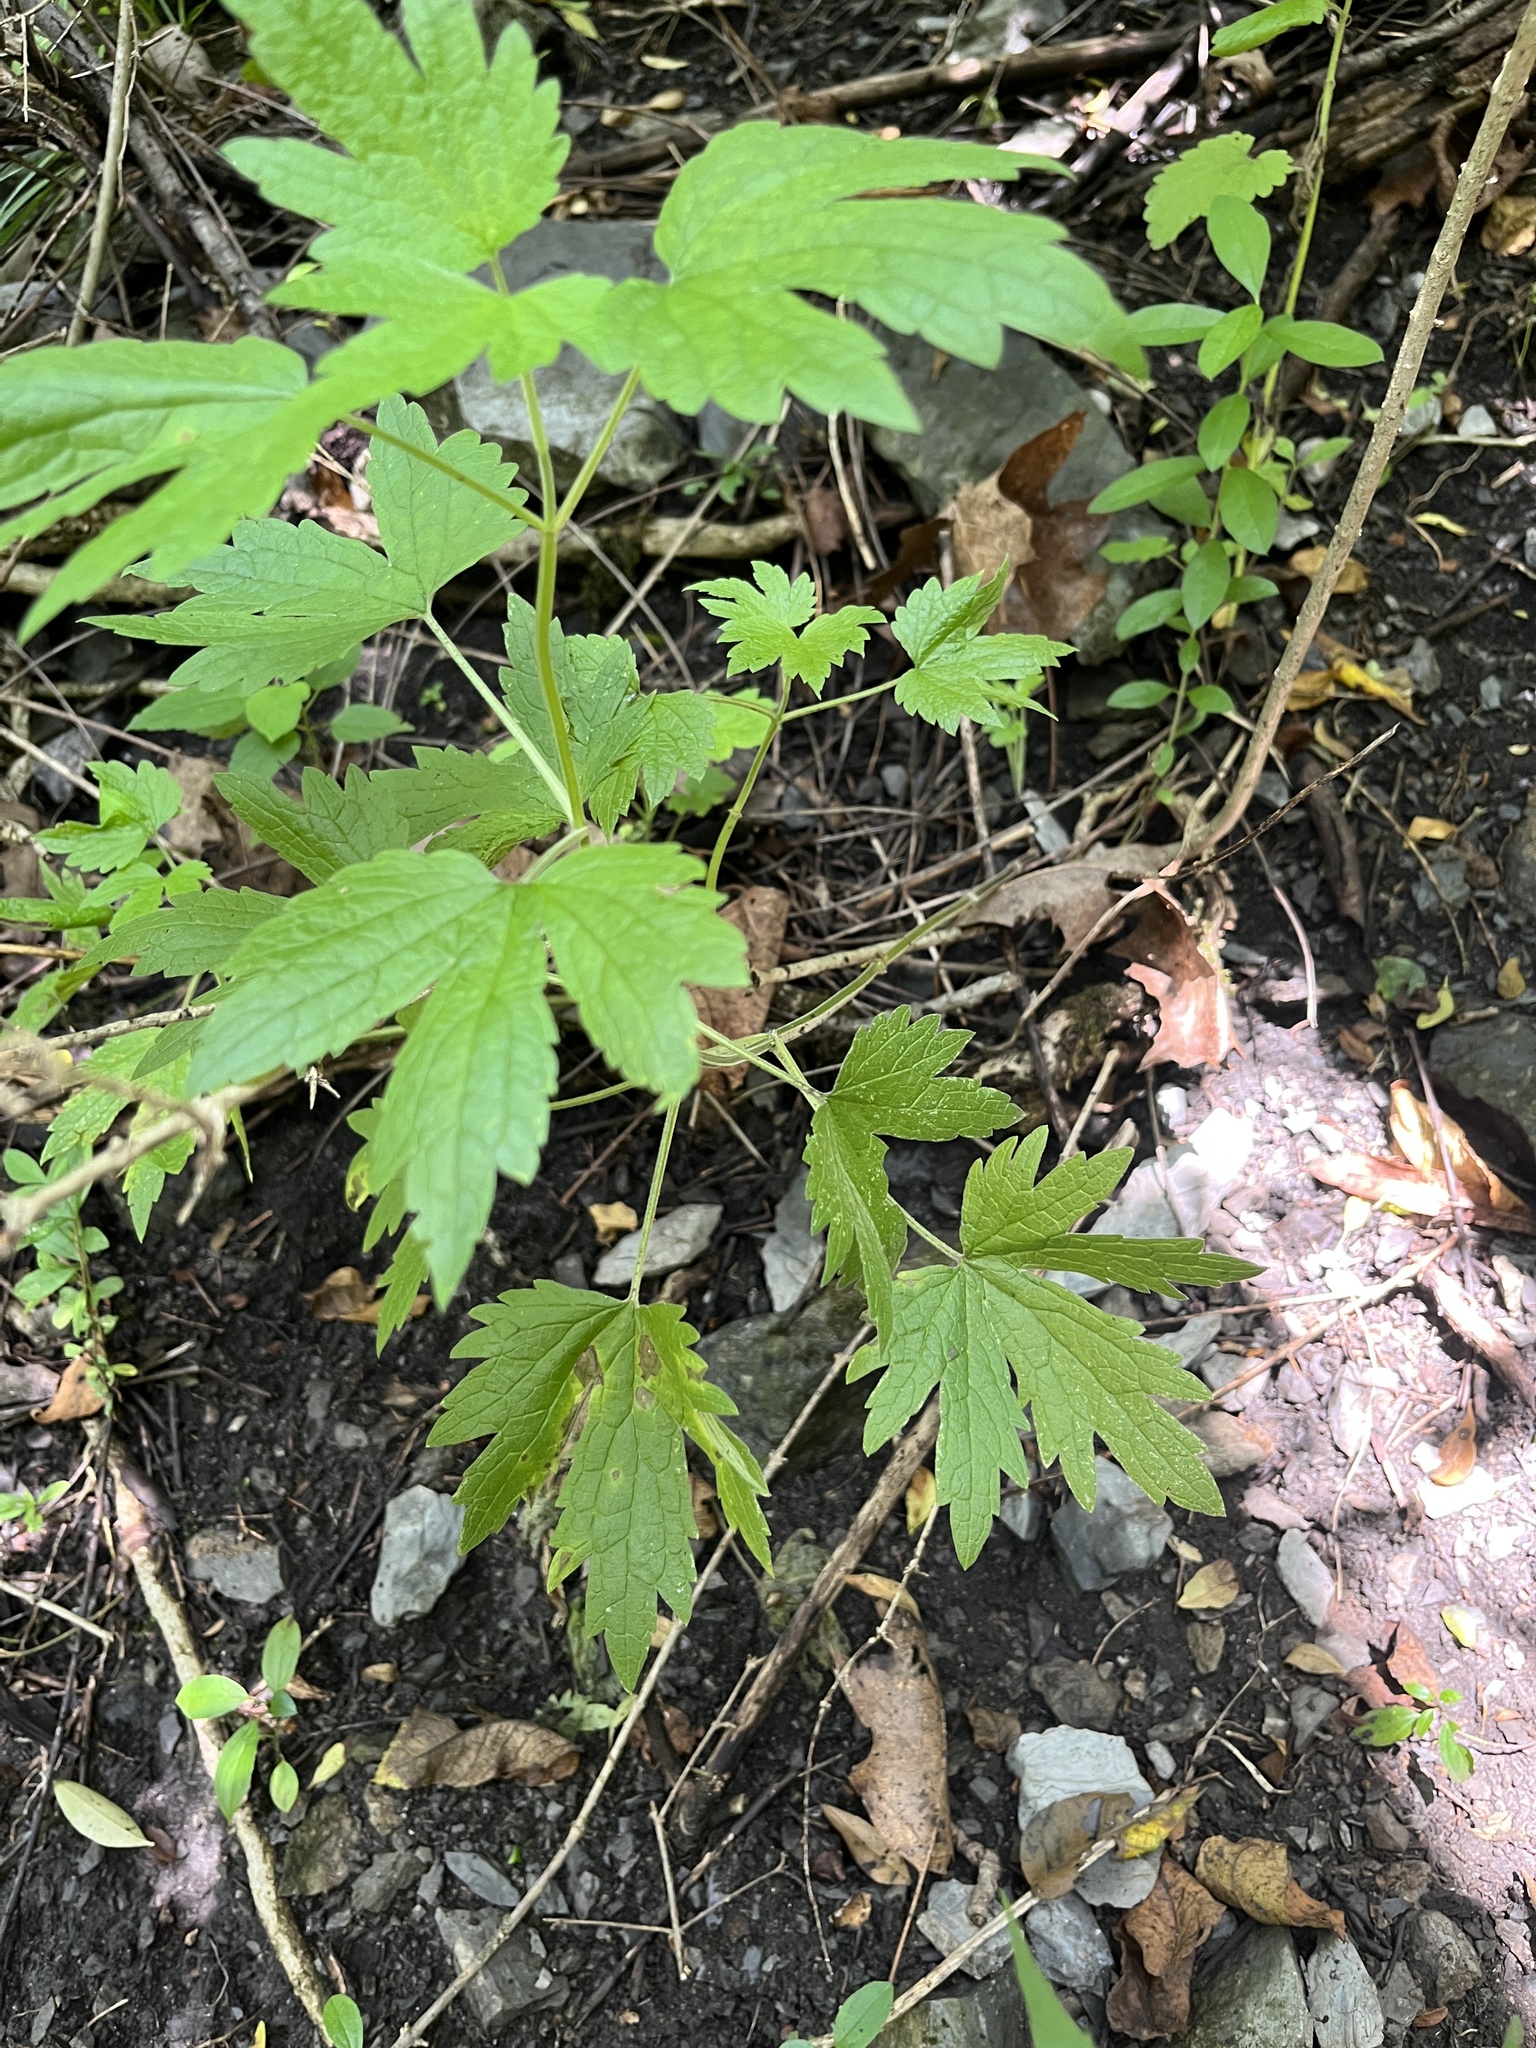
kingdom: Plantae
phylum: Tracheophyta
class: Magnoliopsida
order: Lamiales
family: Lamiaceae
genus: Leonurus
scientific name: Leonurus cardiaca
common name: Motherwort
